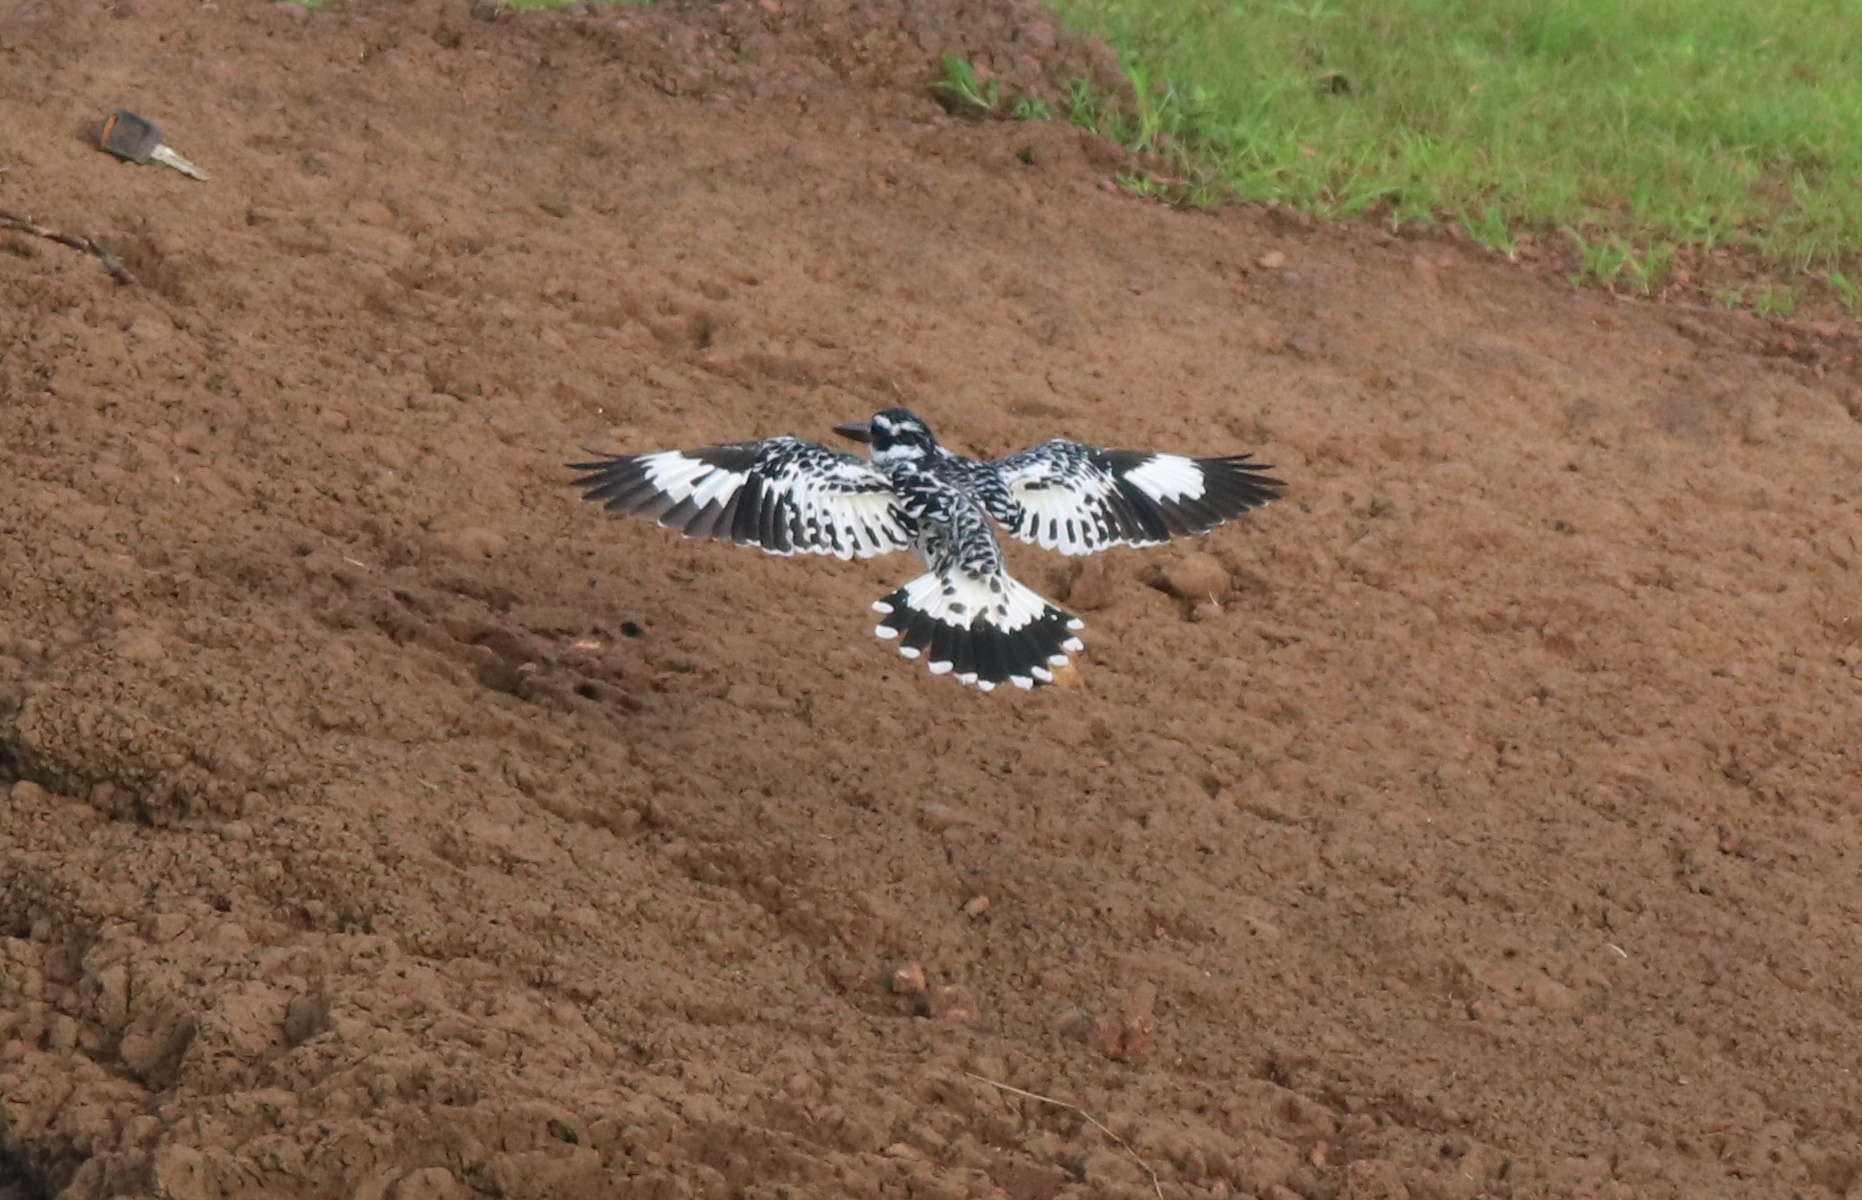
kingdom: Animalia
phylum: Chordata
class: Aves
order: Coraciiformes
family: Alcedinidae
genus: Ceryle
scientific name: Ceryle rudis
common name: Pied kingfisher
